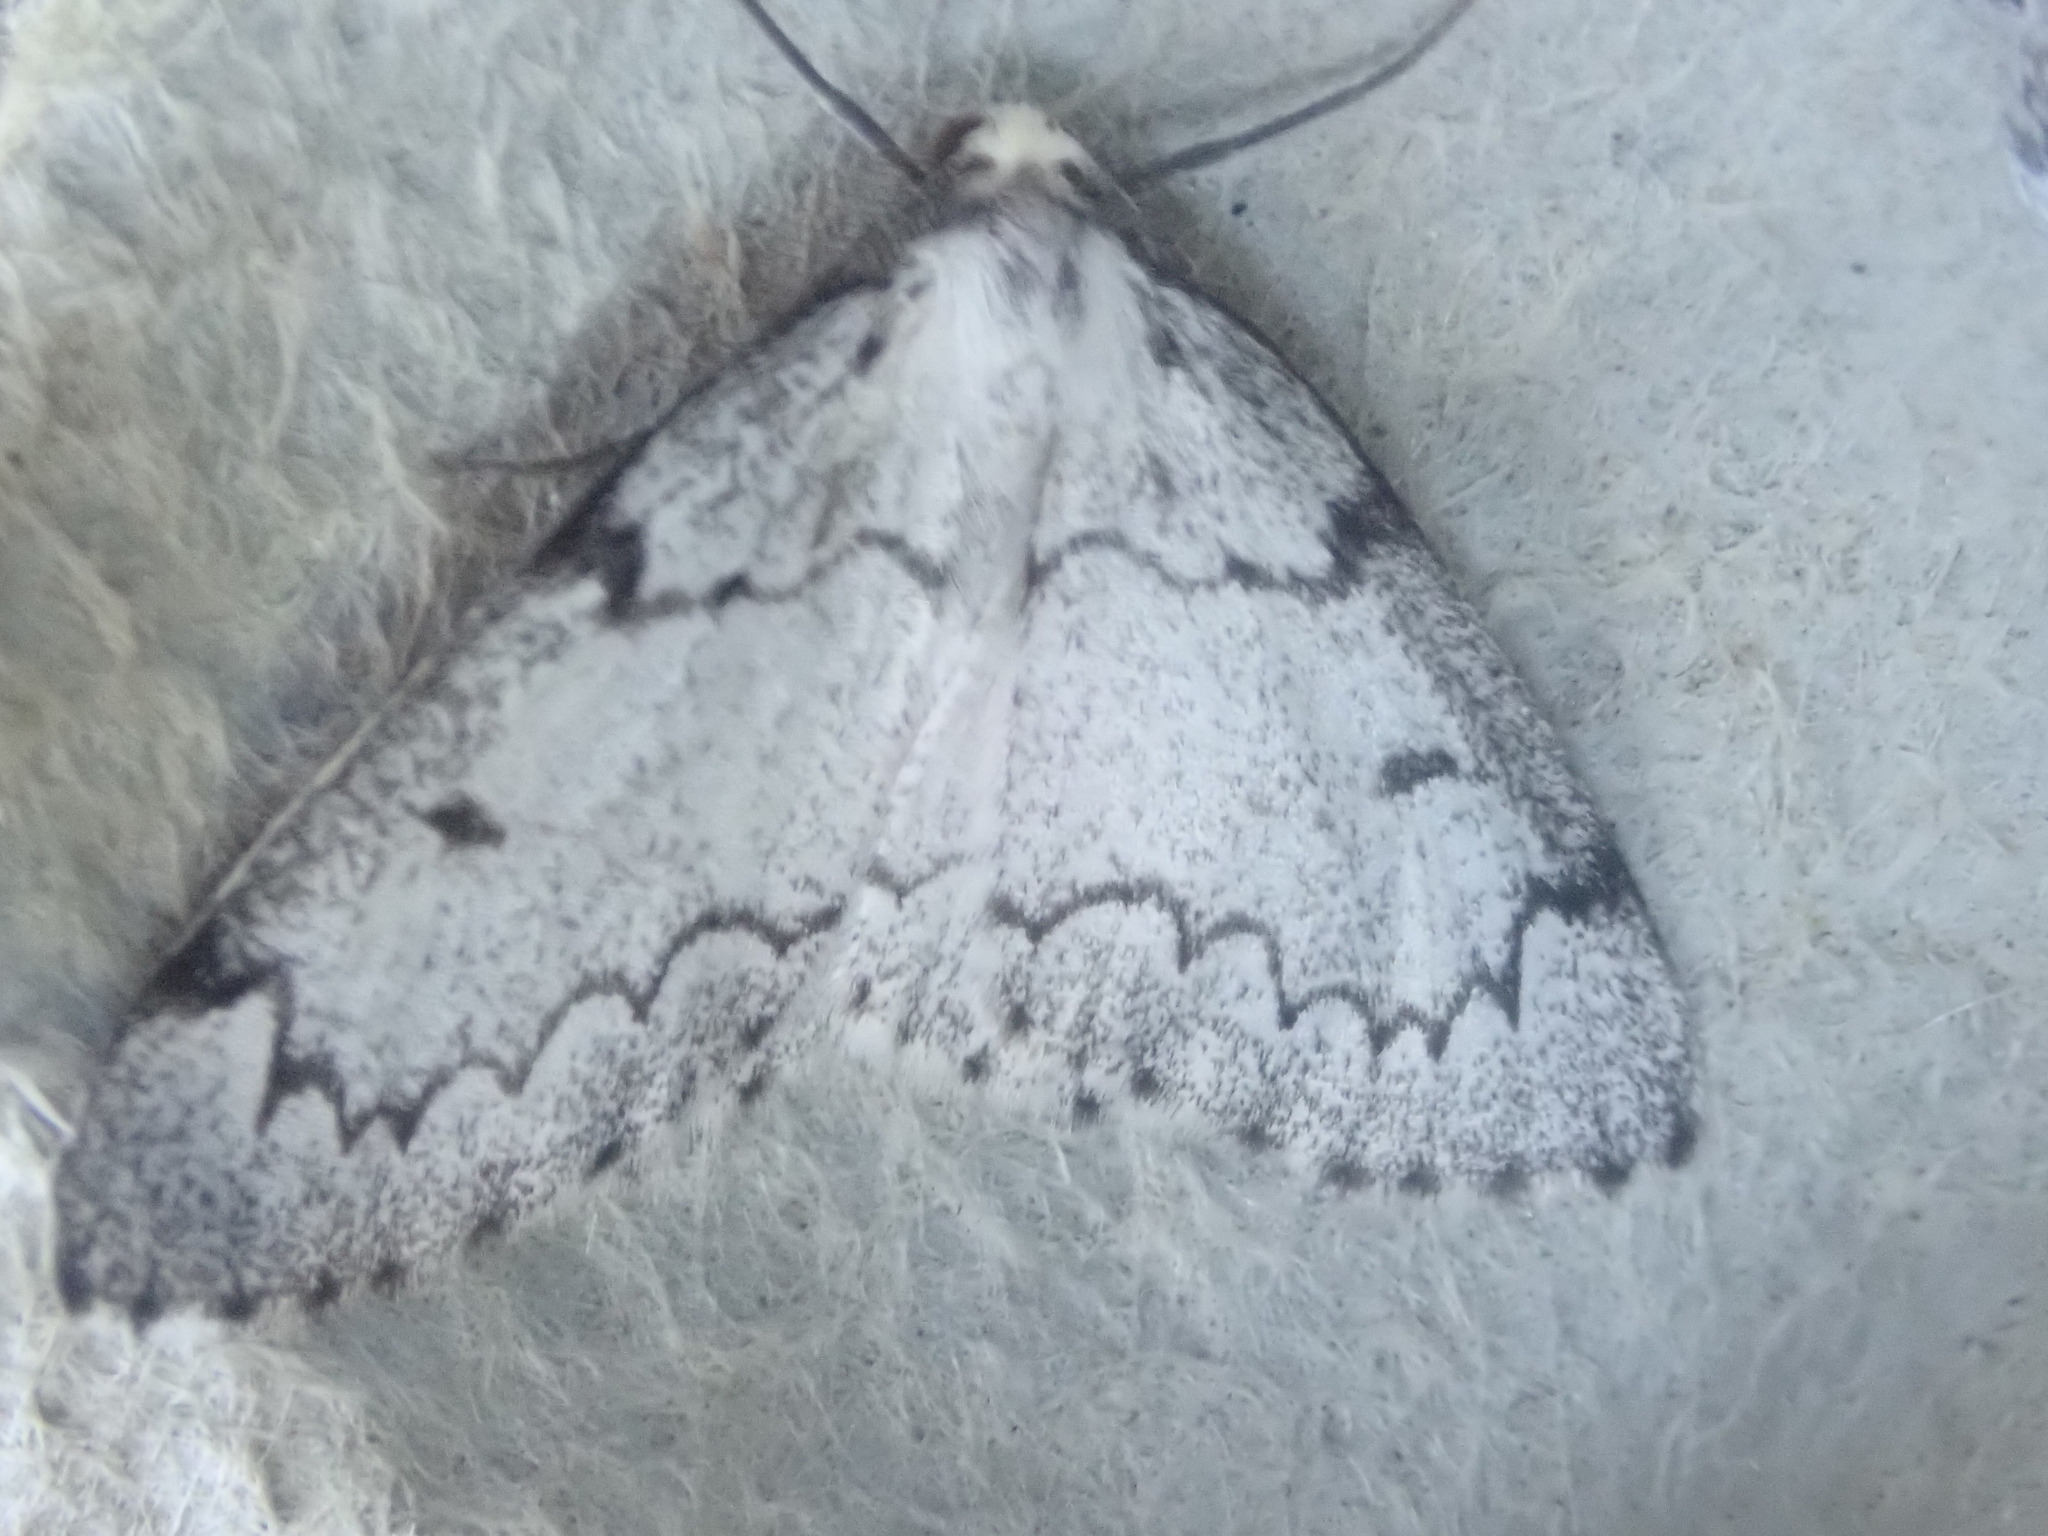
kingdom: Animalia
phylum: Arthropoda
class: Insecta
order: Lepidoptera
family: Geometridae
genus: Nepytia
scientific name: Nepytia canosaria
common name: False hemlock looper
